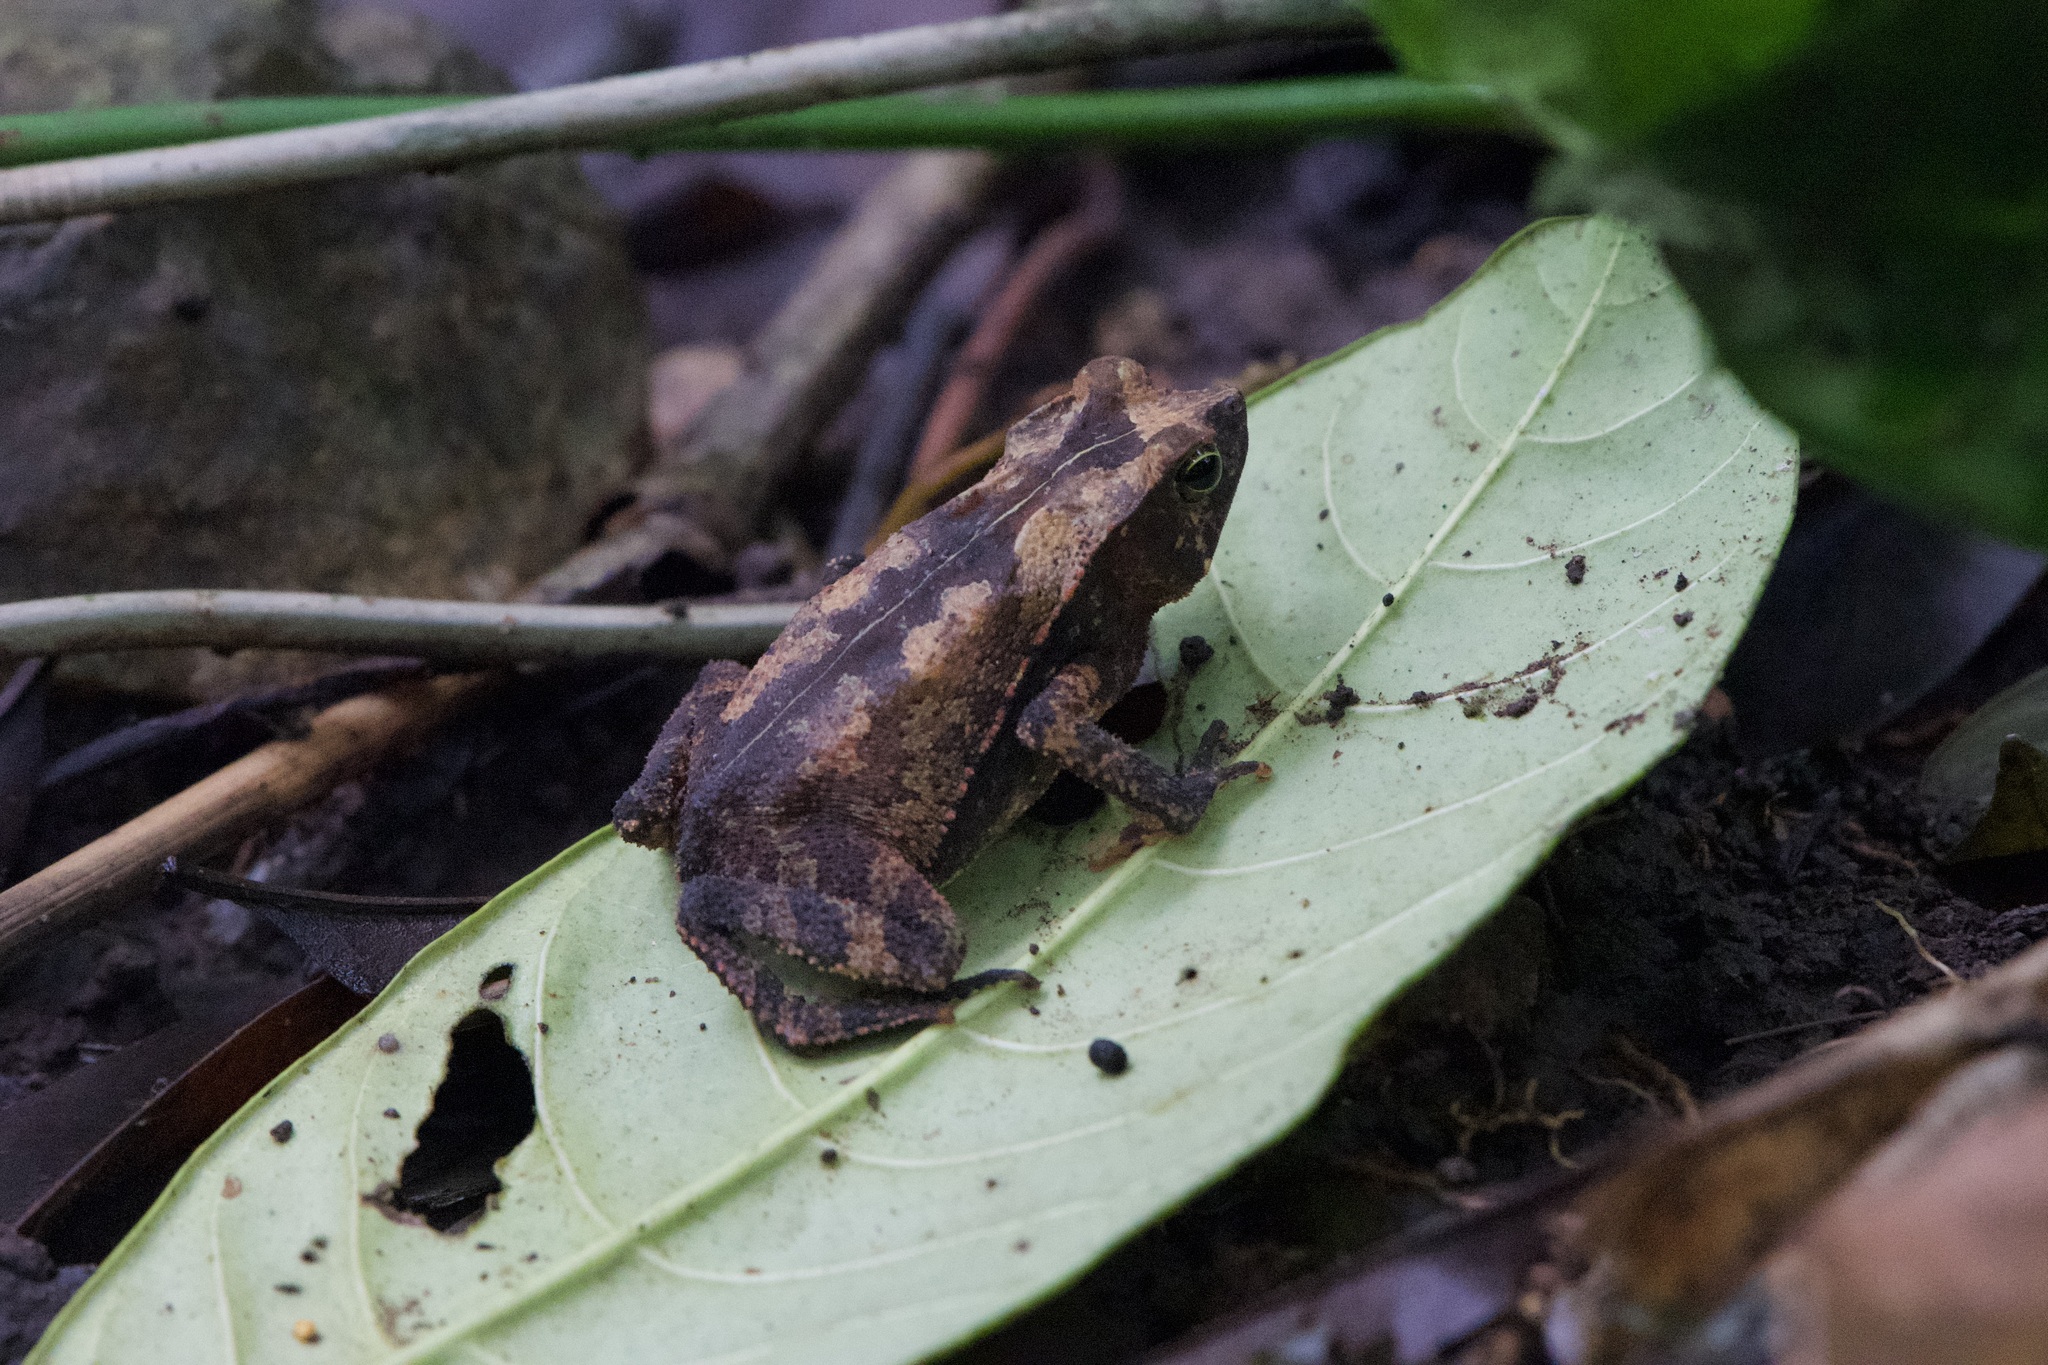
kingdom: Animalia
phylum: Chordata
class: Amphibia
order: Anura
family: Bufonidae
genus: Rhinella
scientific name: Rhinella alata
